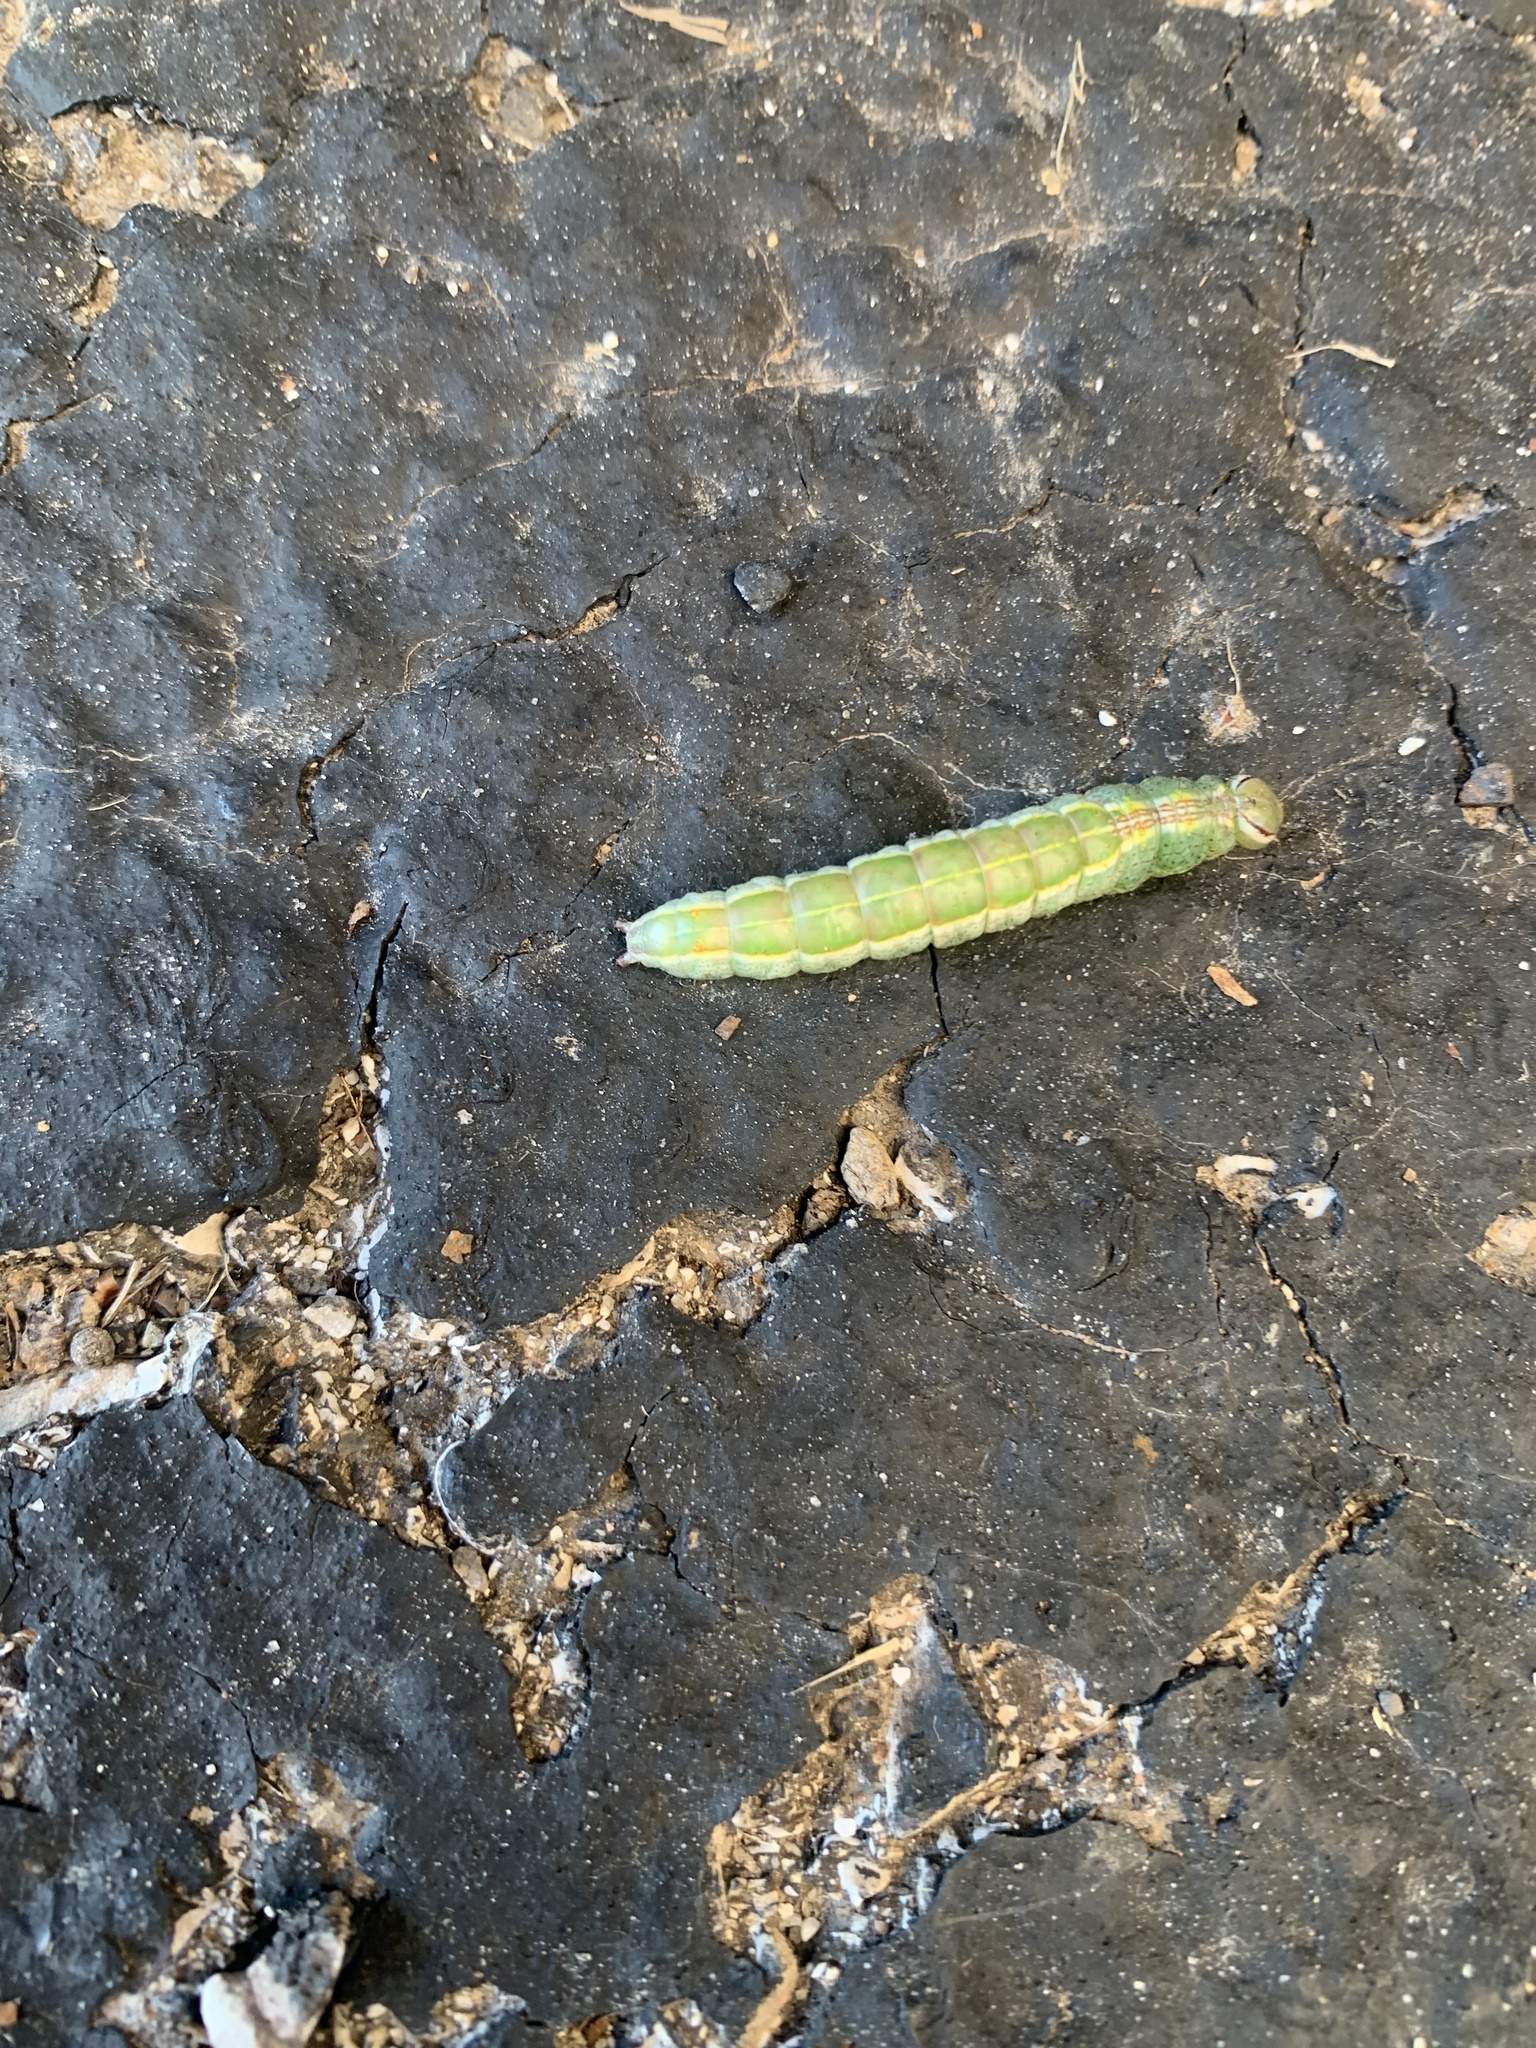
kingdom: Animalia
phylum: Arthropoda
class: Insecta
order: Lepidoptera
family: Notodontidae
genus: Lochmaeus
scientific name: Lochmaeus manteo
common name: Variable oakleaf caterpillar moth
